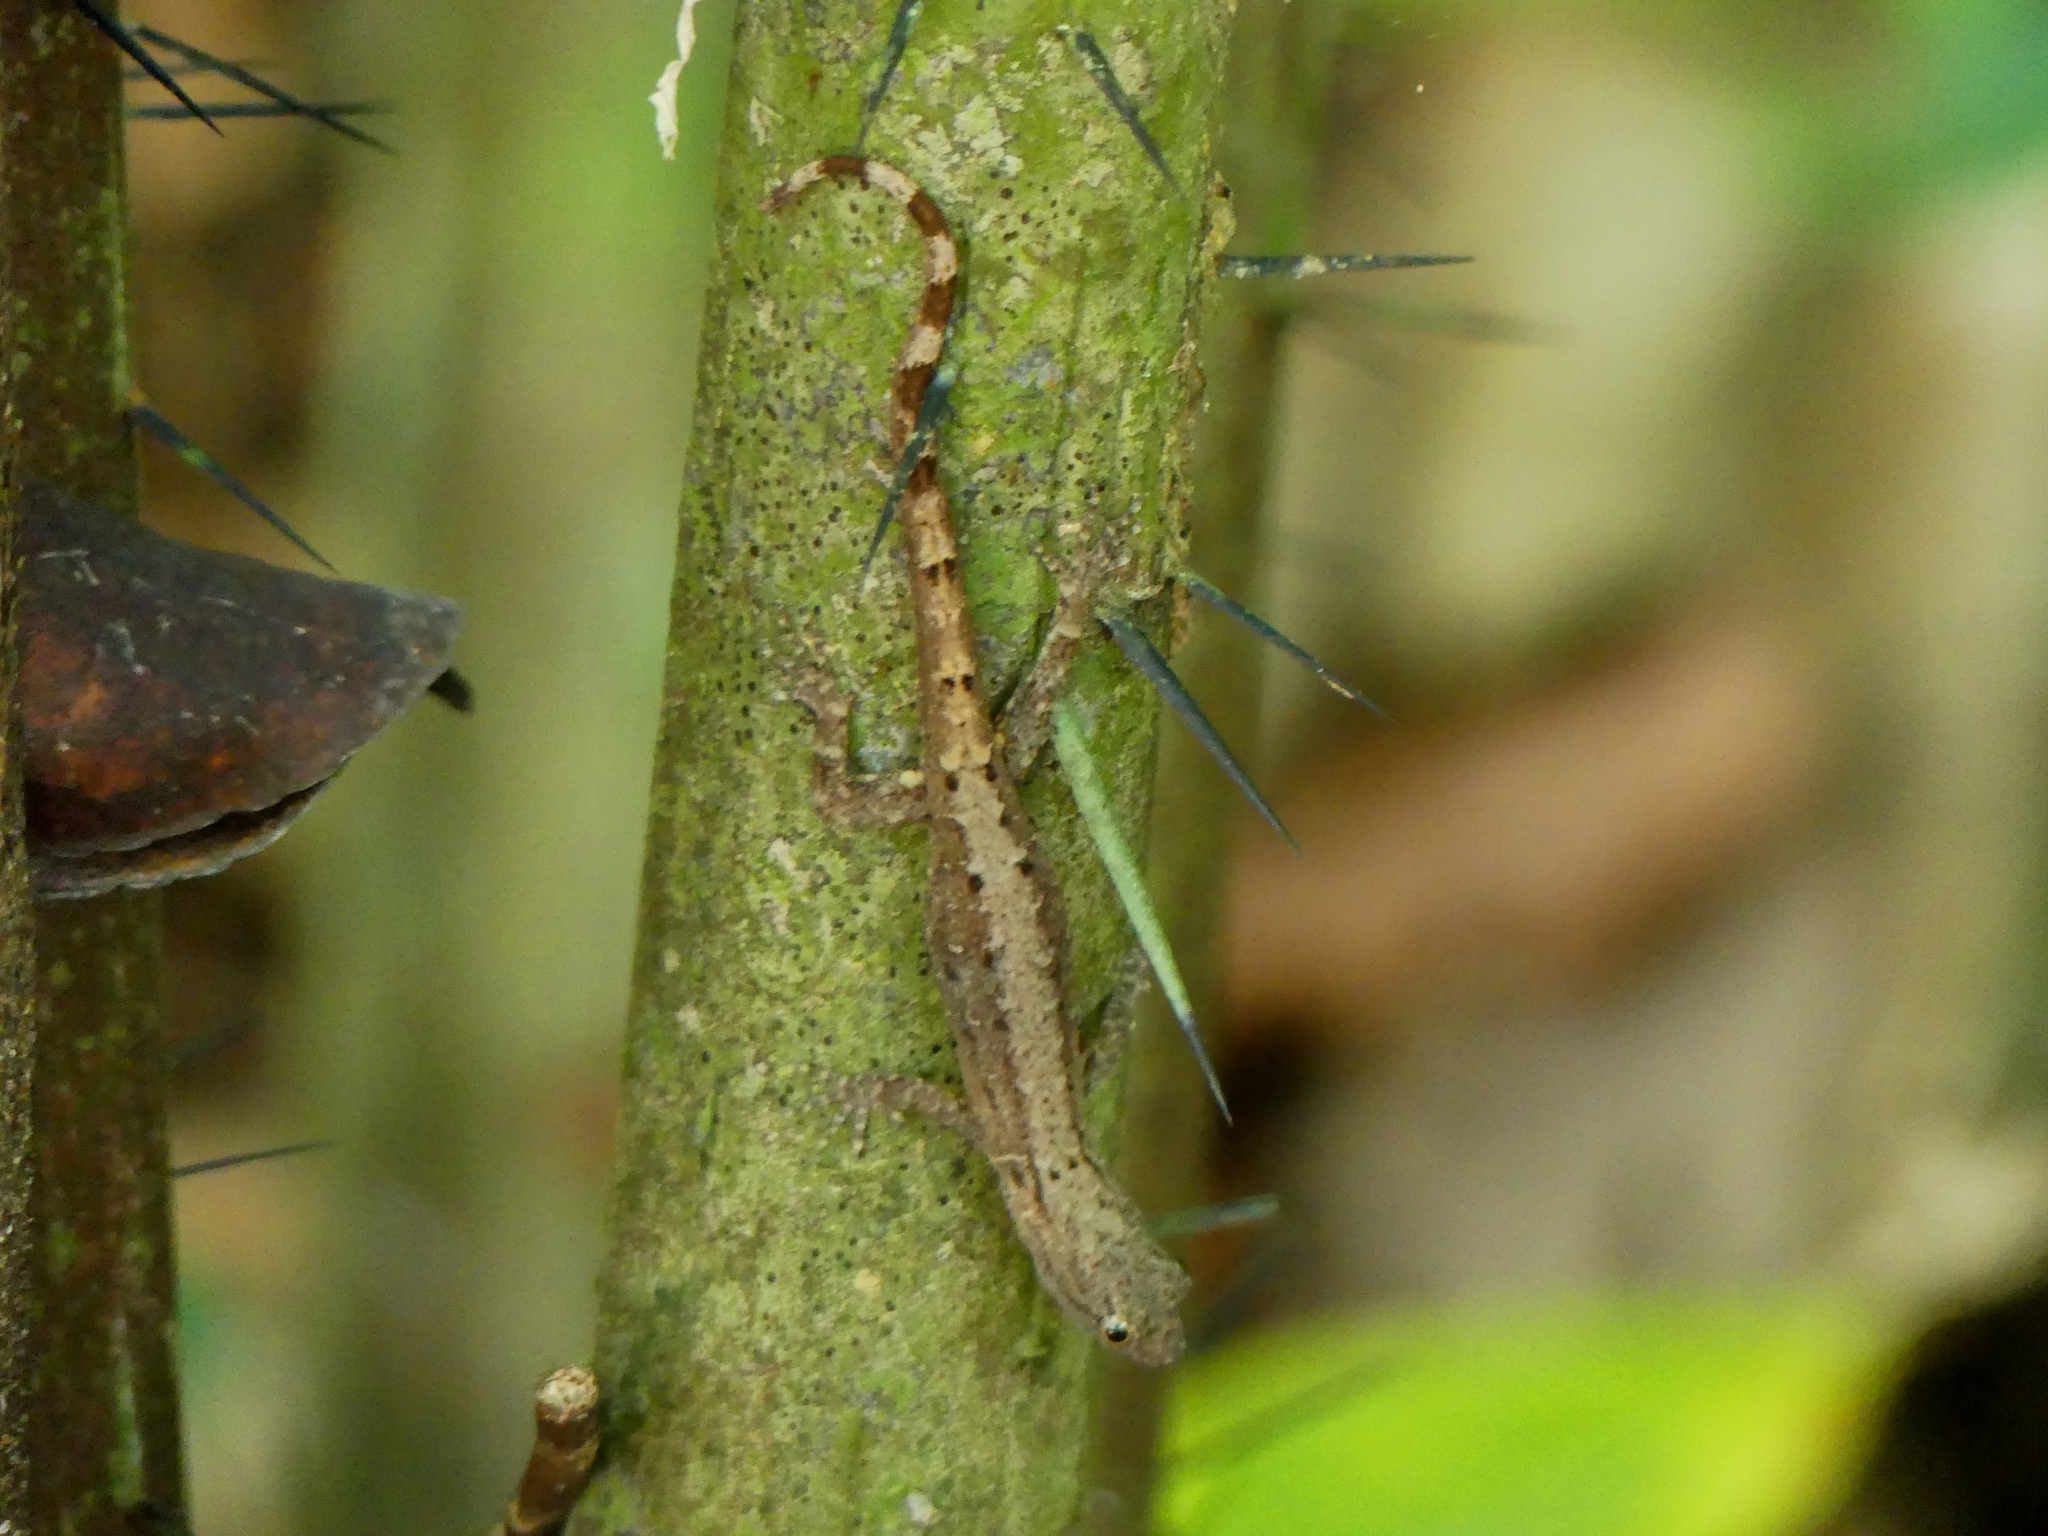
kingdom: Animalia
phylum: Chordata
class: Squamata
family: Sphaerodactylidae
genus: Gonatodes
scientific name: Gonatodes humeralis
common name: South american clawed gecko
